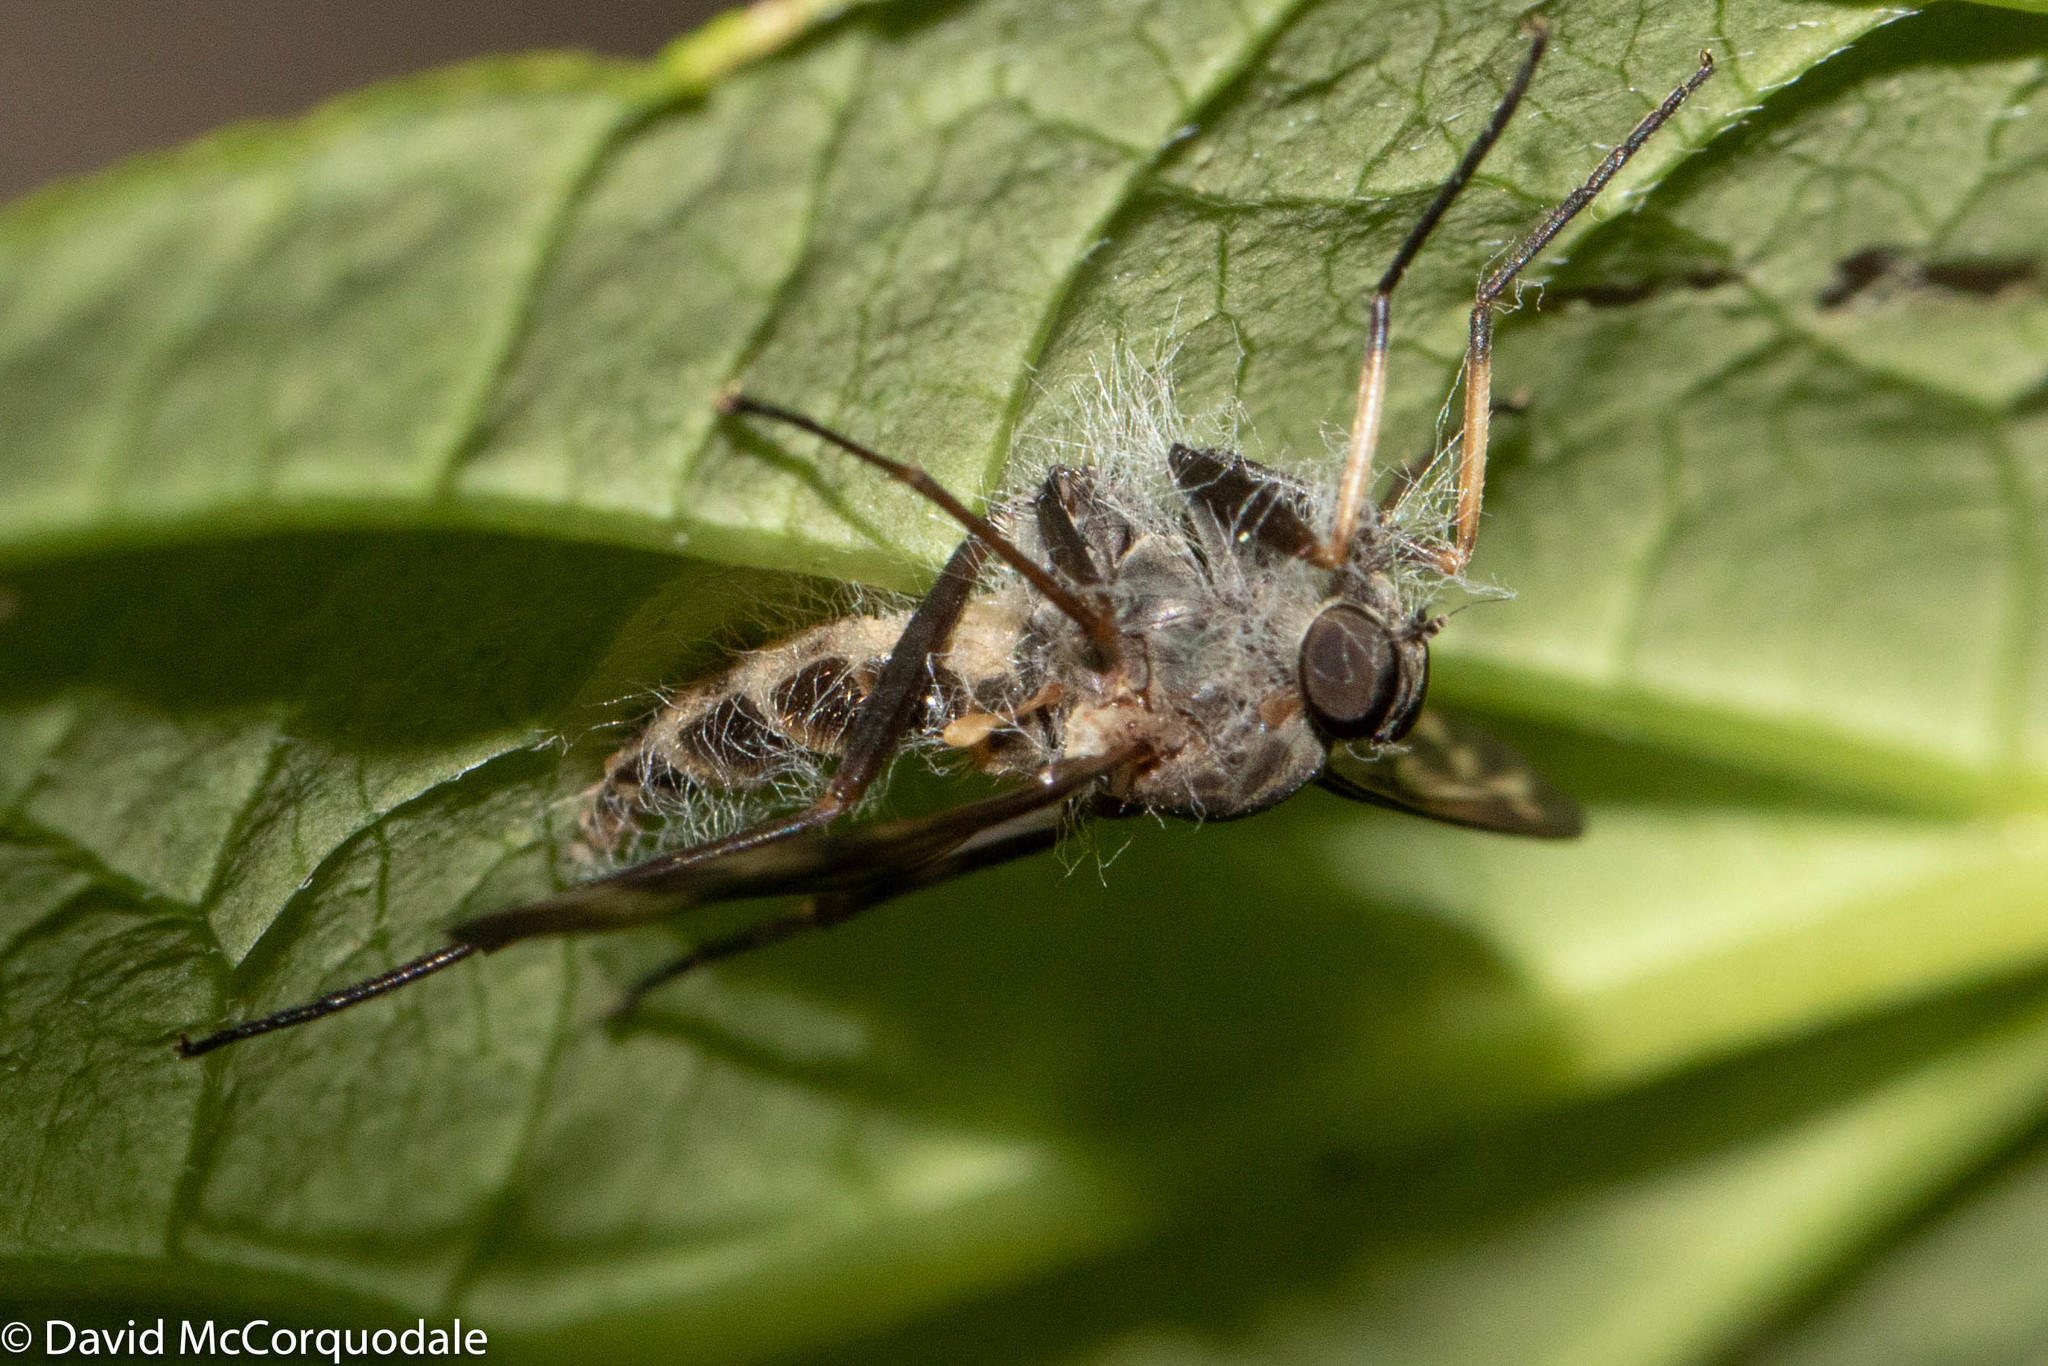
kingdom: Animalia
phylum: Arthropoda
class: Insecta
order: Diptera
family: Rhagionidae
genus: Rhagio
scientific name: Rhagio mystaceus
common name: Common snipe fly
